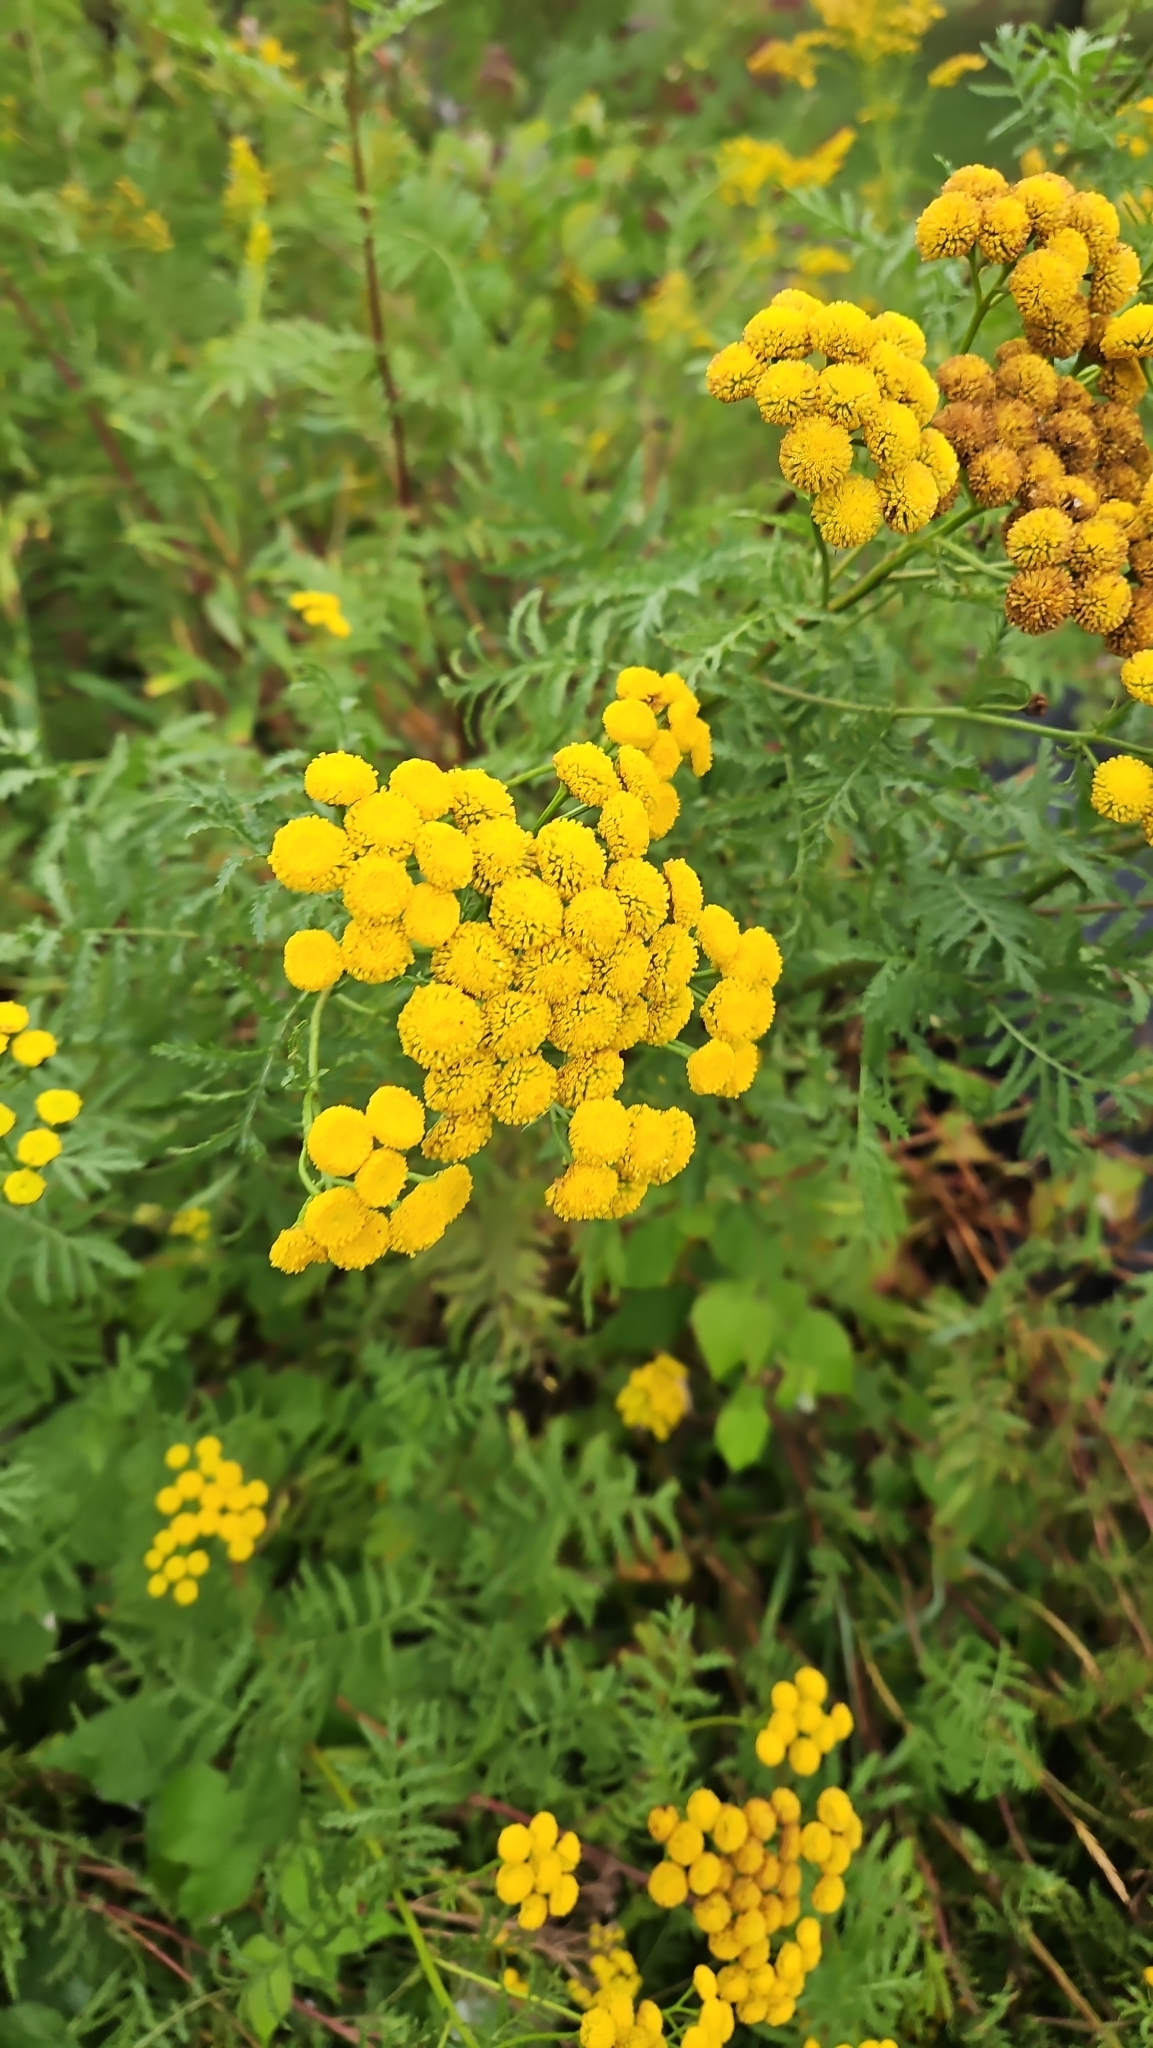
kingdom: Plantae
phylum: Tracheophyta
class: Magnoliopsida
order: Asterales
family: Asteraceae
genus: Tanacetum
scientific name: Tanacetum vulgare
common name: Common tansy
